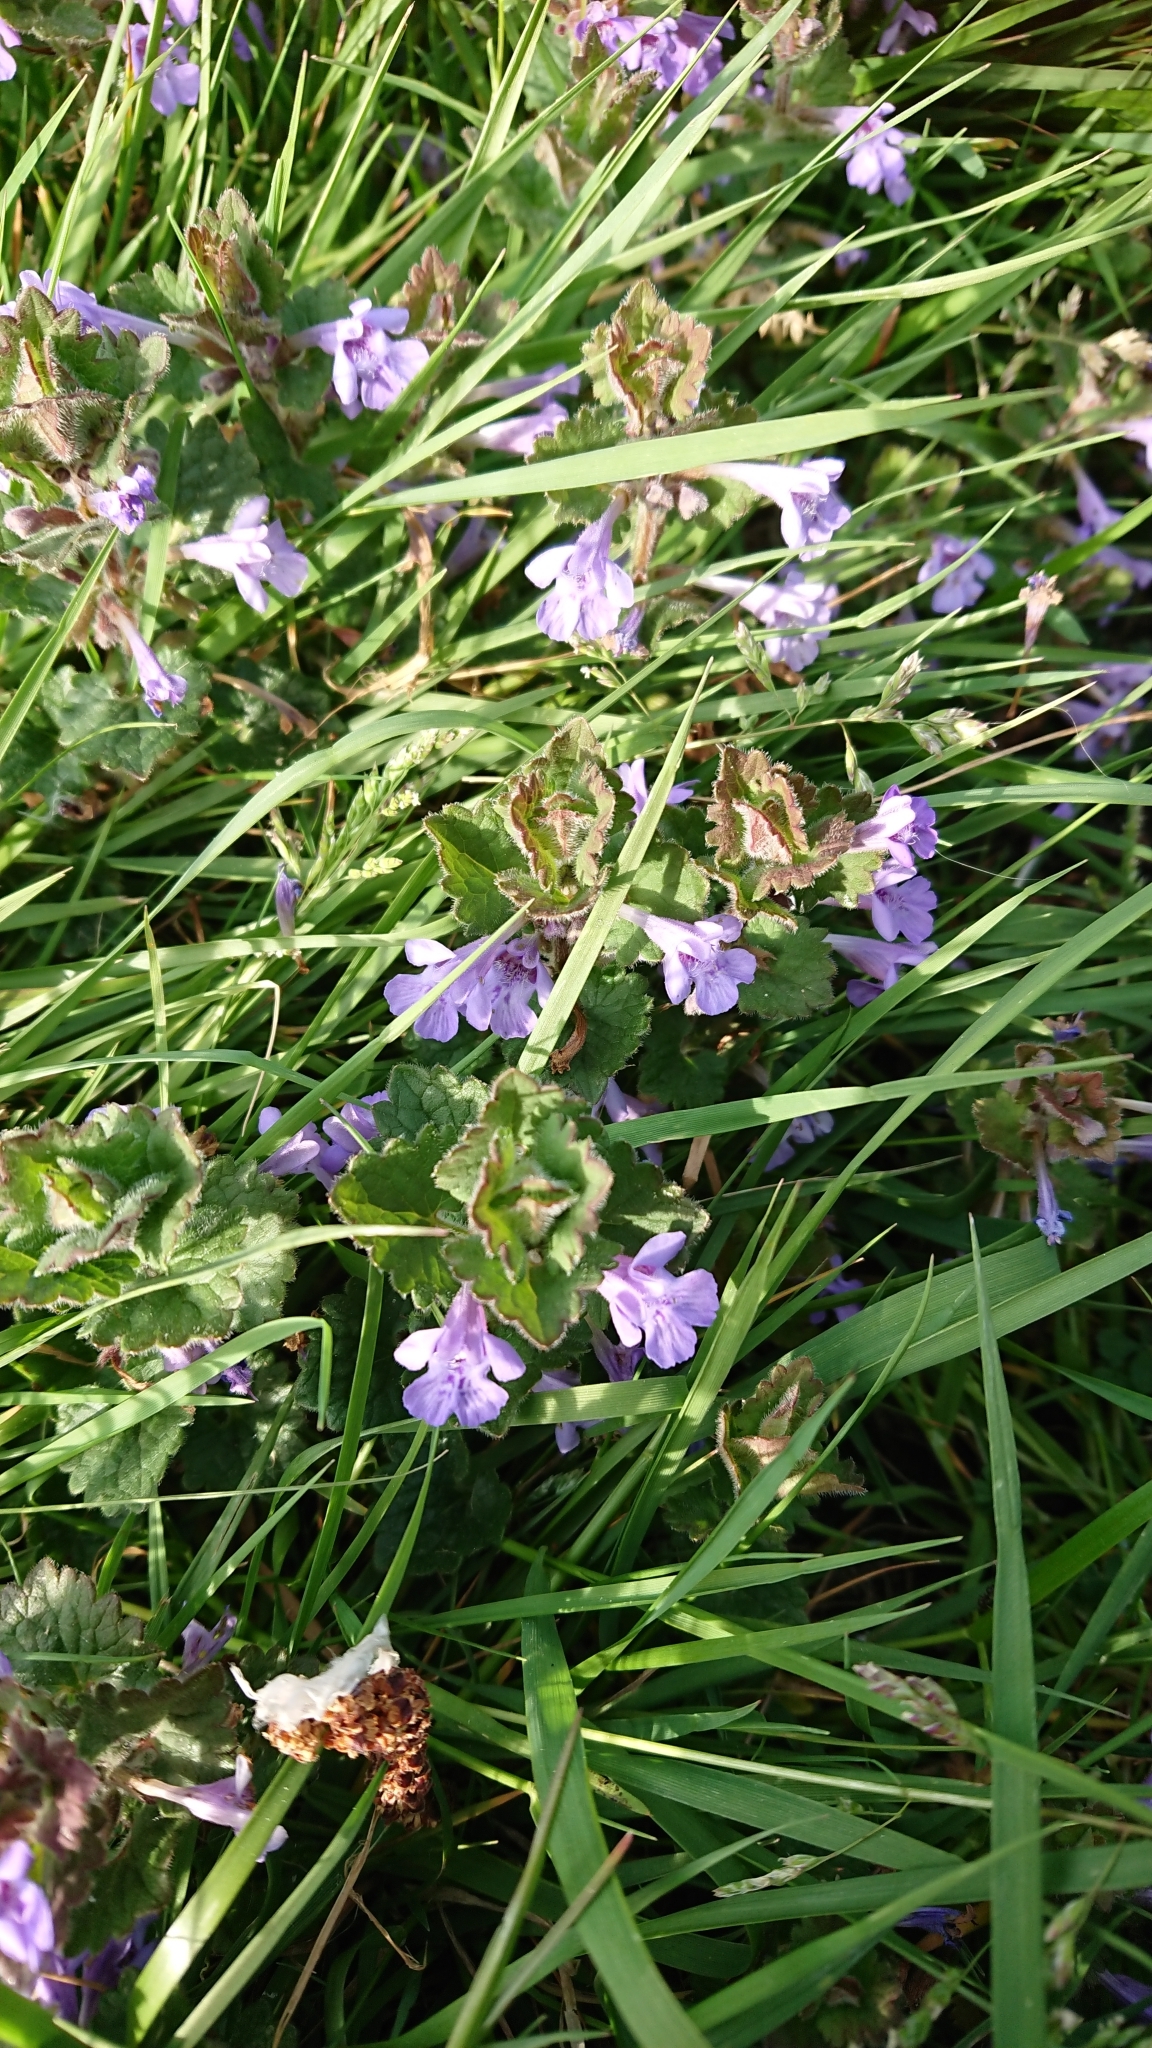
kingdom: Plantae
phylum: Tracheophyta
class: Magnoliopsida
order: Lamiales
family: Lamiaceae
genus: Glechoma
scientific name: Glechoma hederacea
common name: Ground ivy
